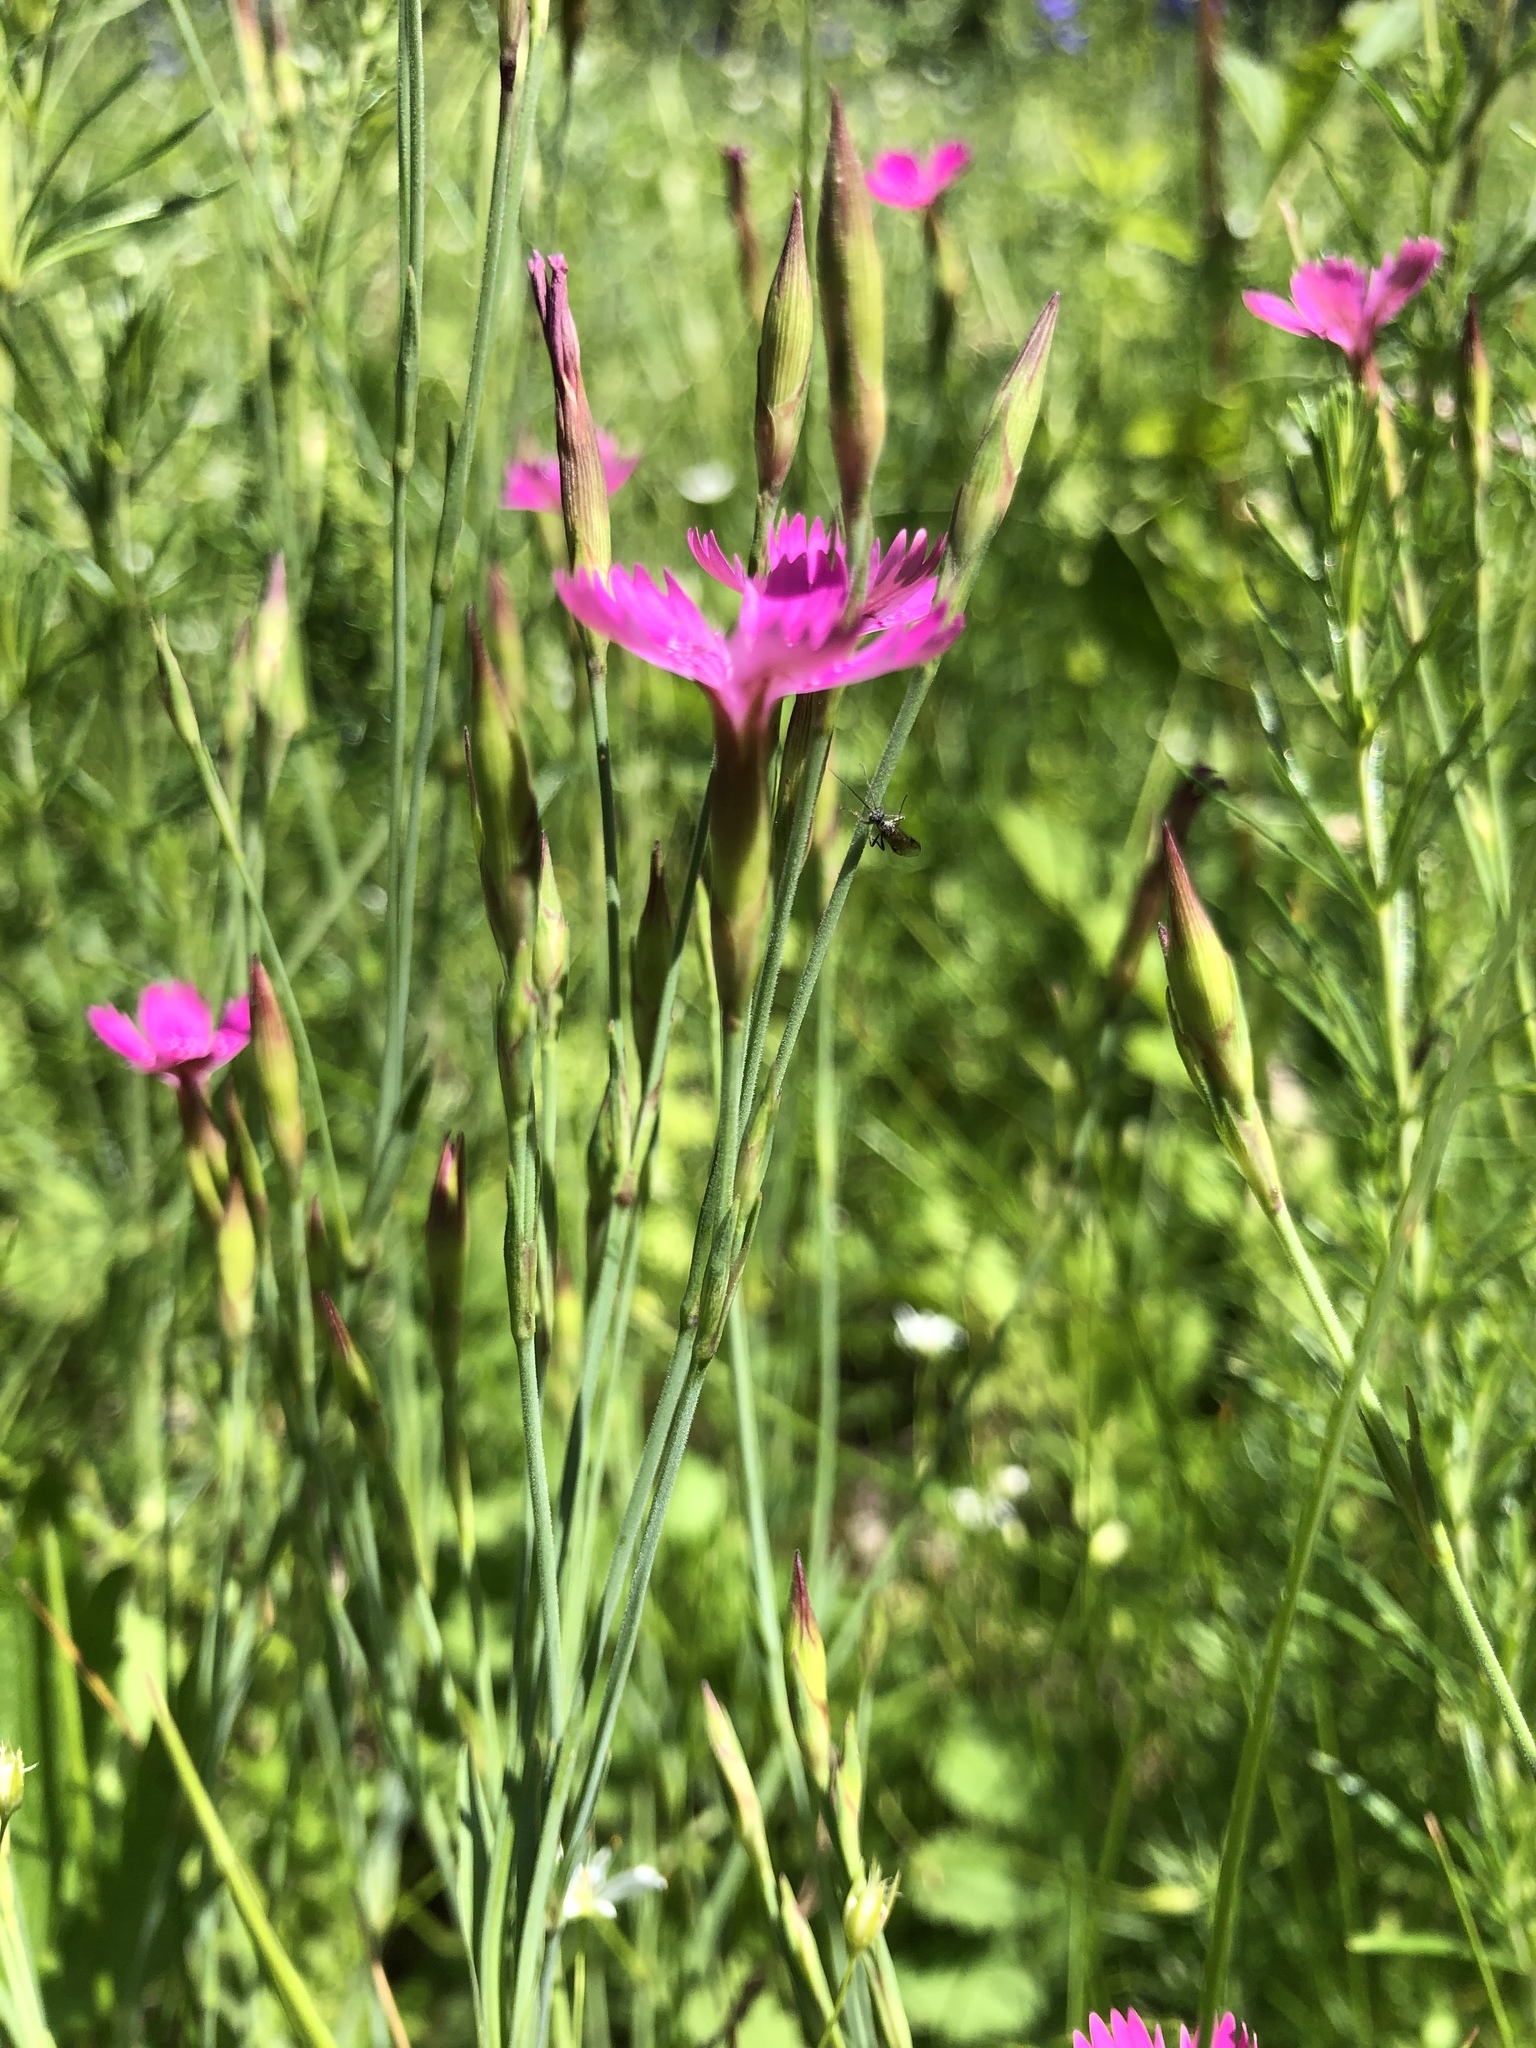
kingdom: Plantae
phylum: Tracheophyta
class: Magnoliopsida
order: Caryophyllales
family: Caryophyllaceae
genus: Dianthus
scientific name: Dianthus deltoides
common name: Maiden pink
